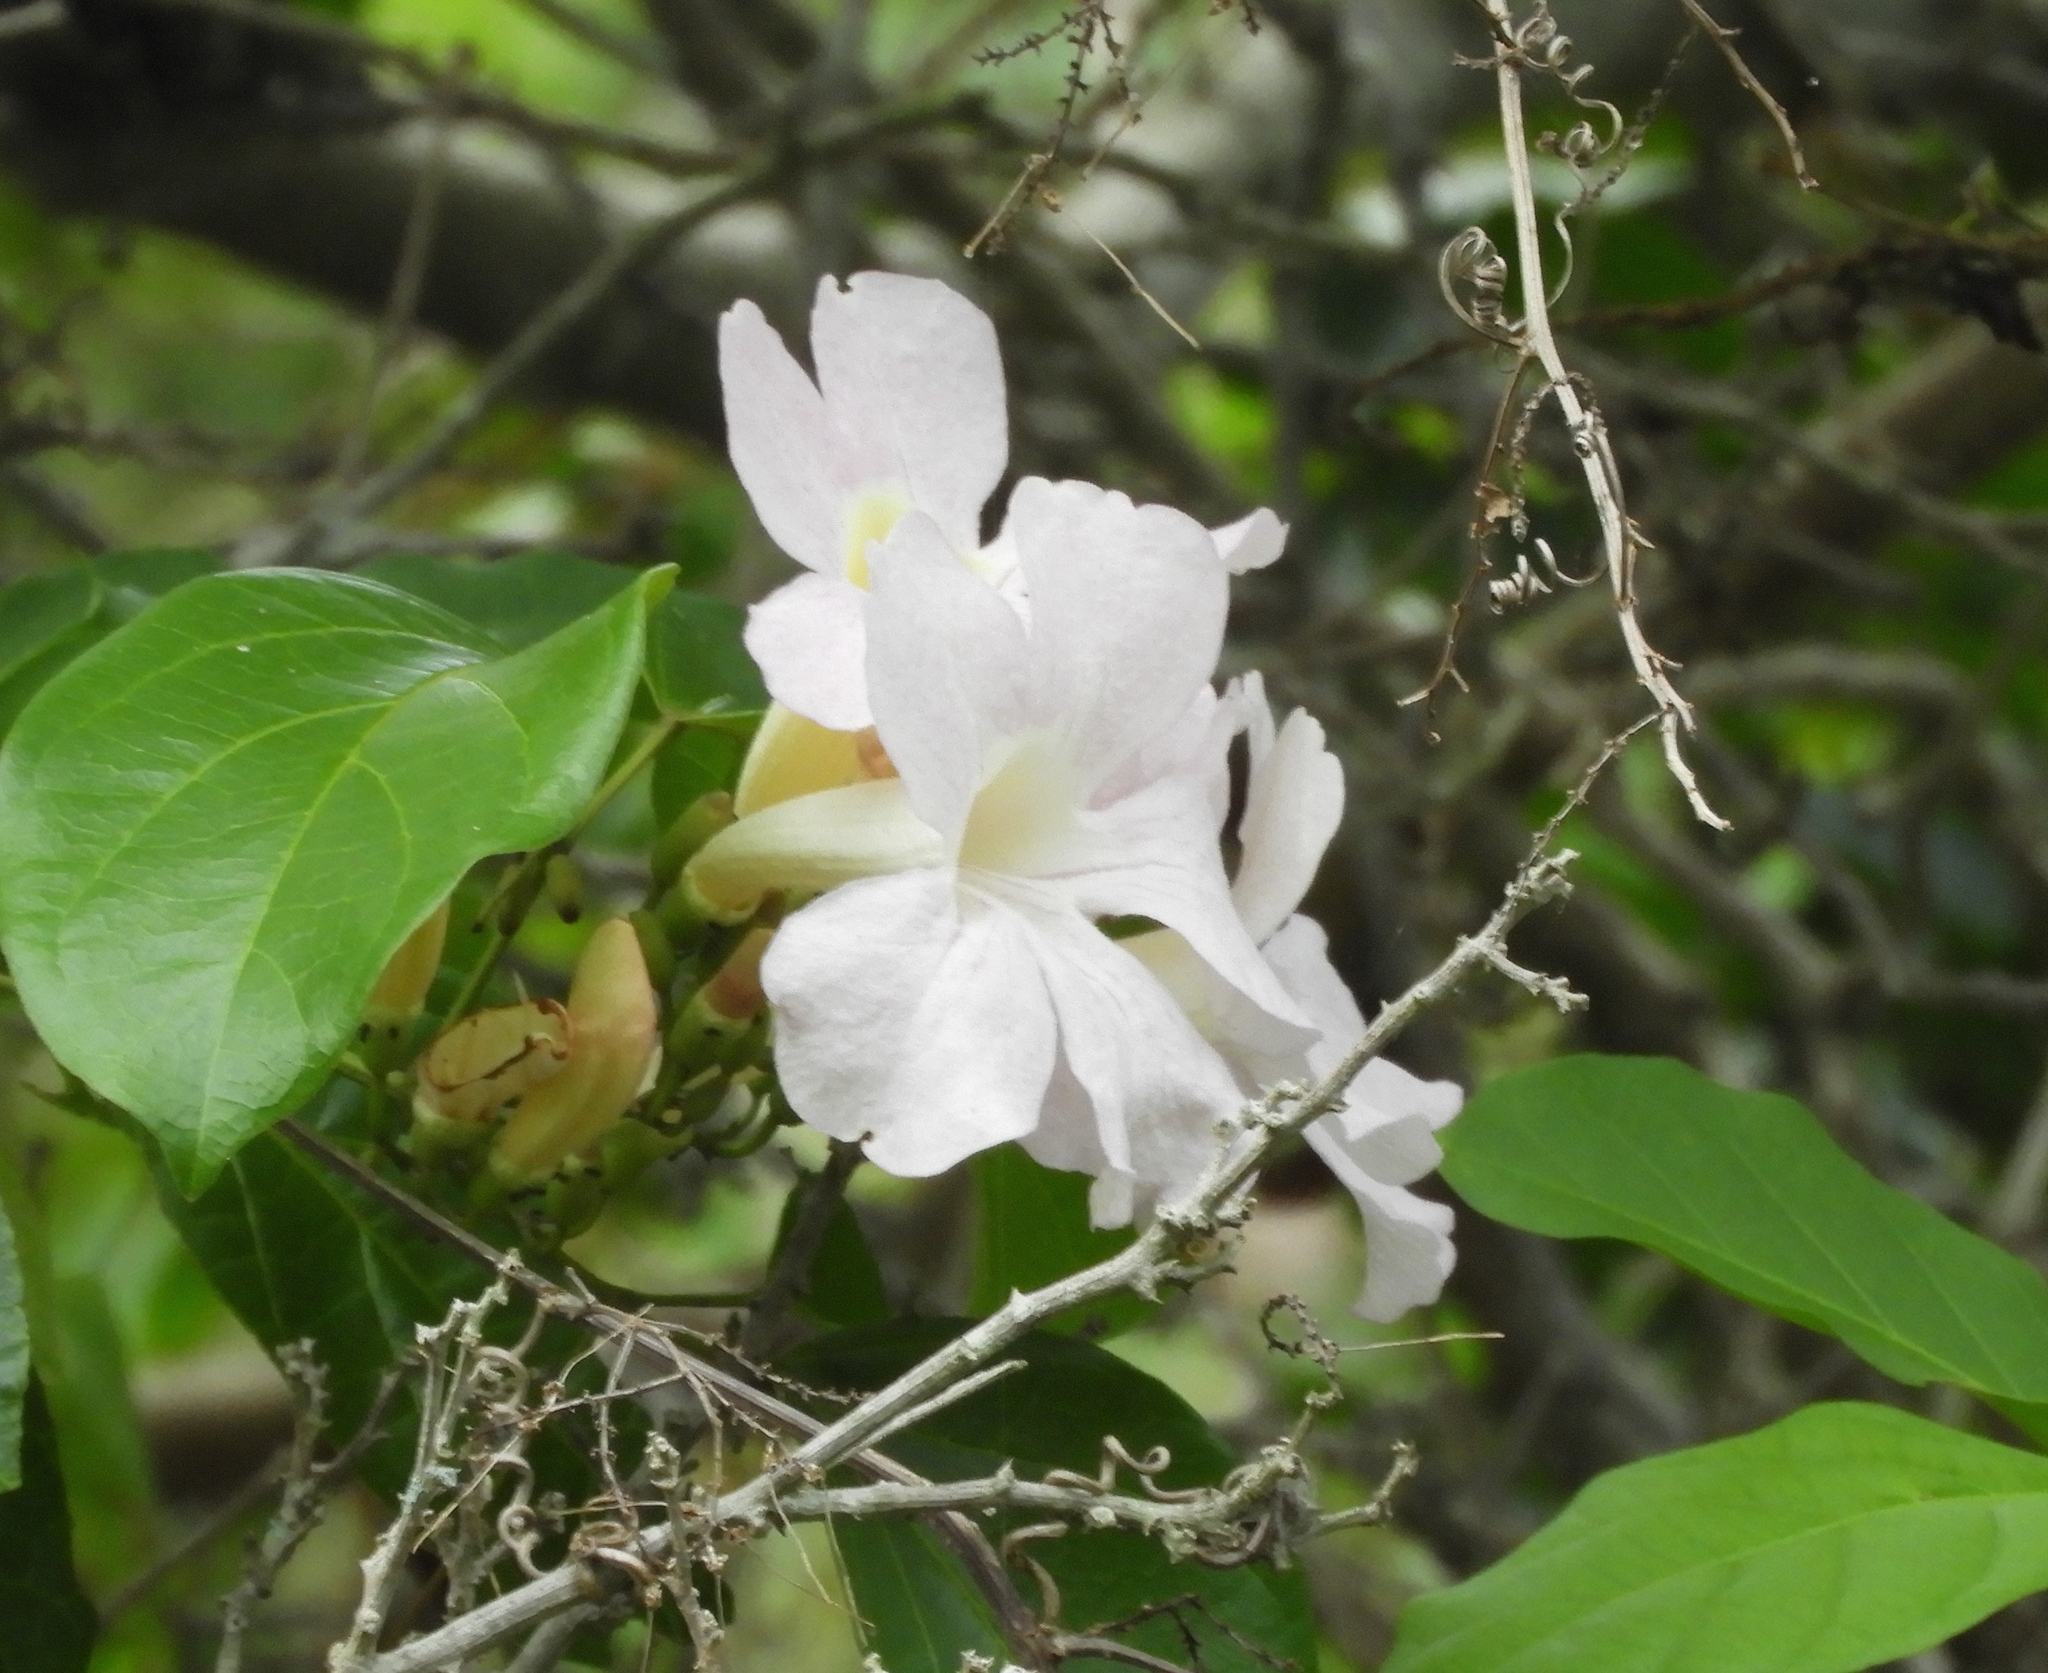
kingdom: Plantae
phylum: Tracheophyta
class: Magnoliopsida
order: Lamiales
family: Bignoniaceae
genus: Bignonia
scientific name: Bignonia potosina
